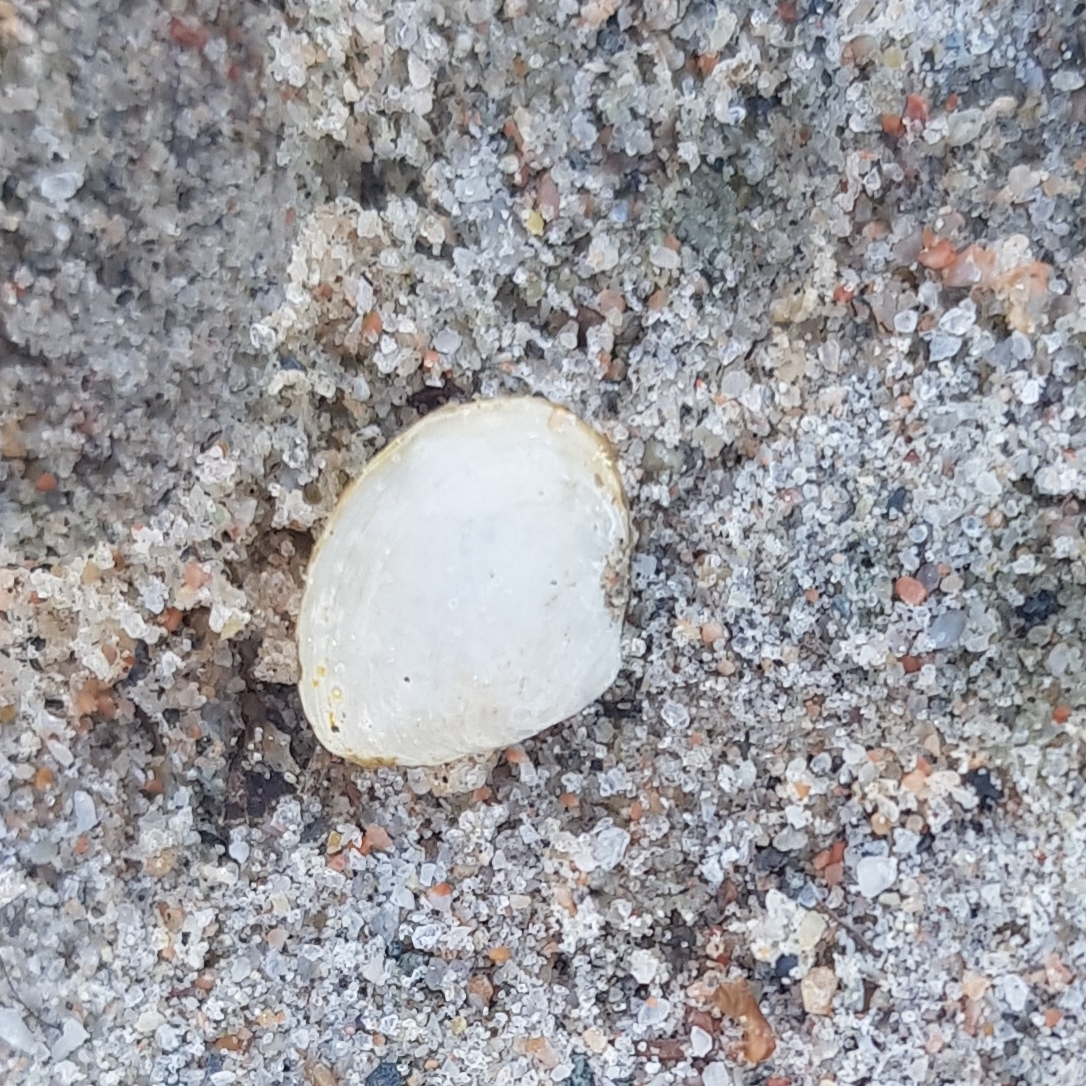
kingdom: Animalia
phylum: Mollusca
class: Bivalvia
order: Cardiida
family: Tellinidae
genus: Macoma
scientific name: Macoma balthica
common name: Baltic tellin
